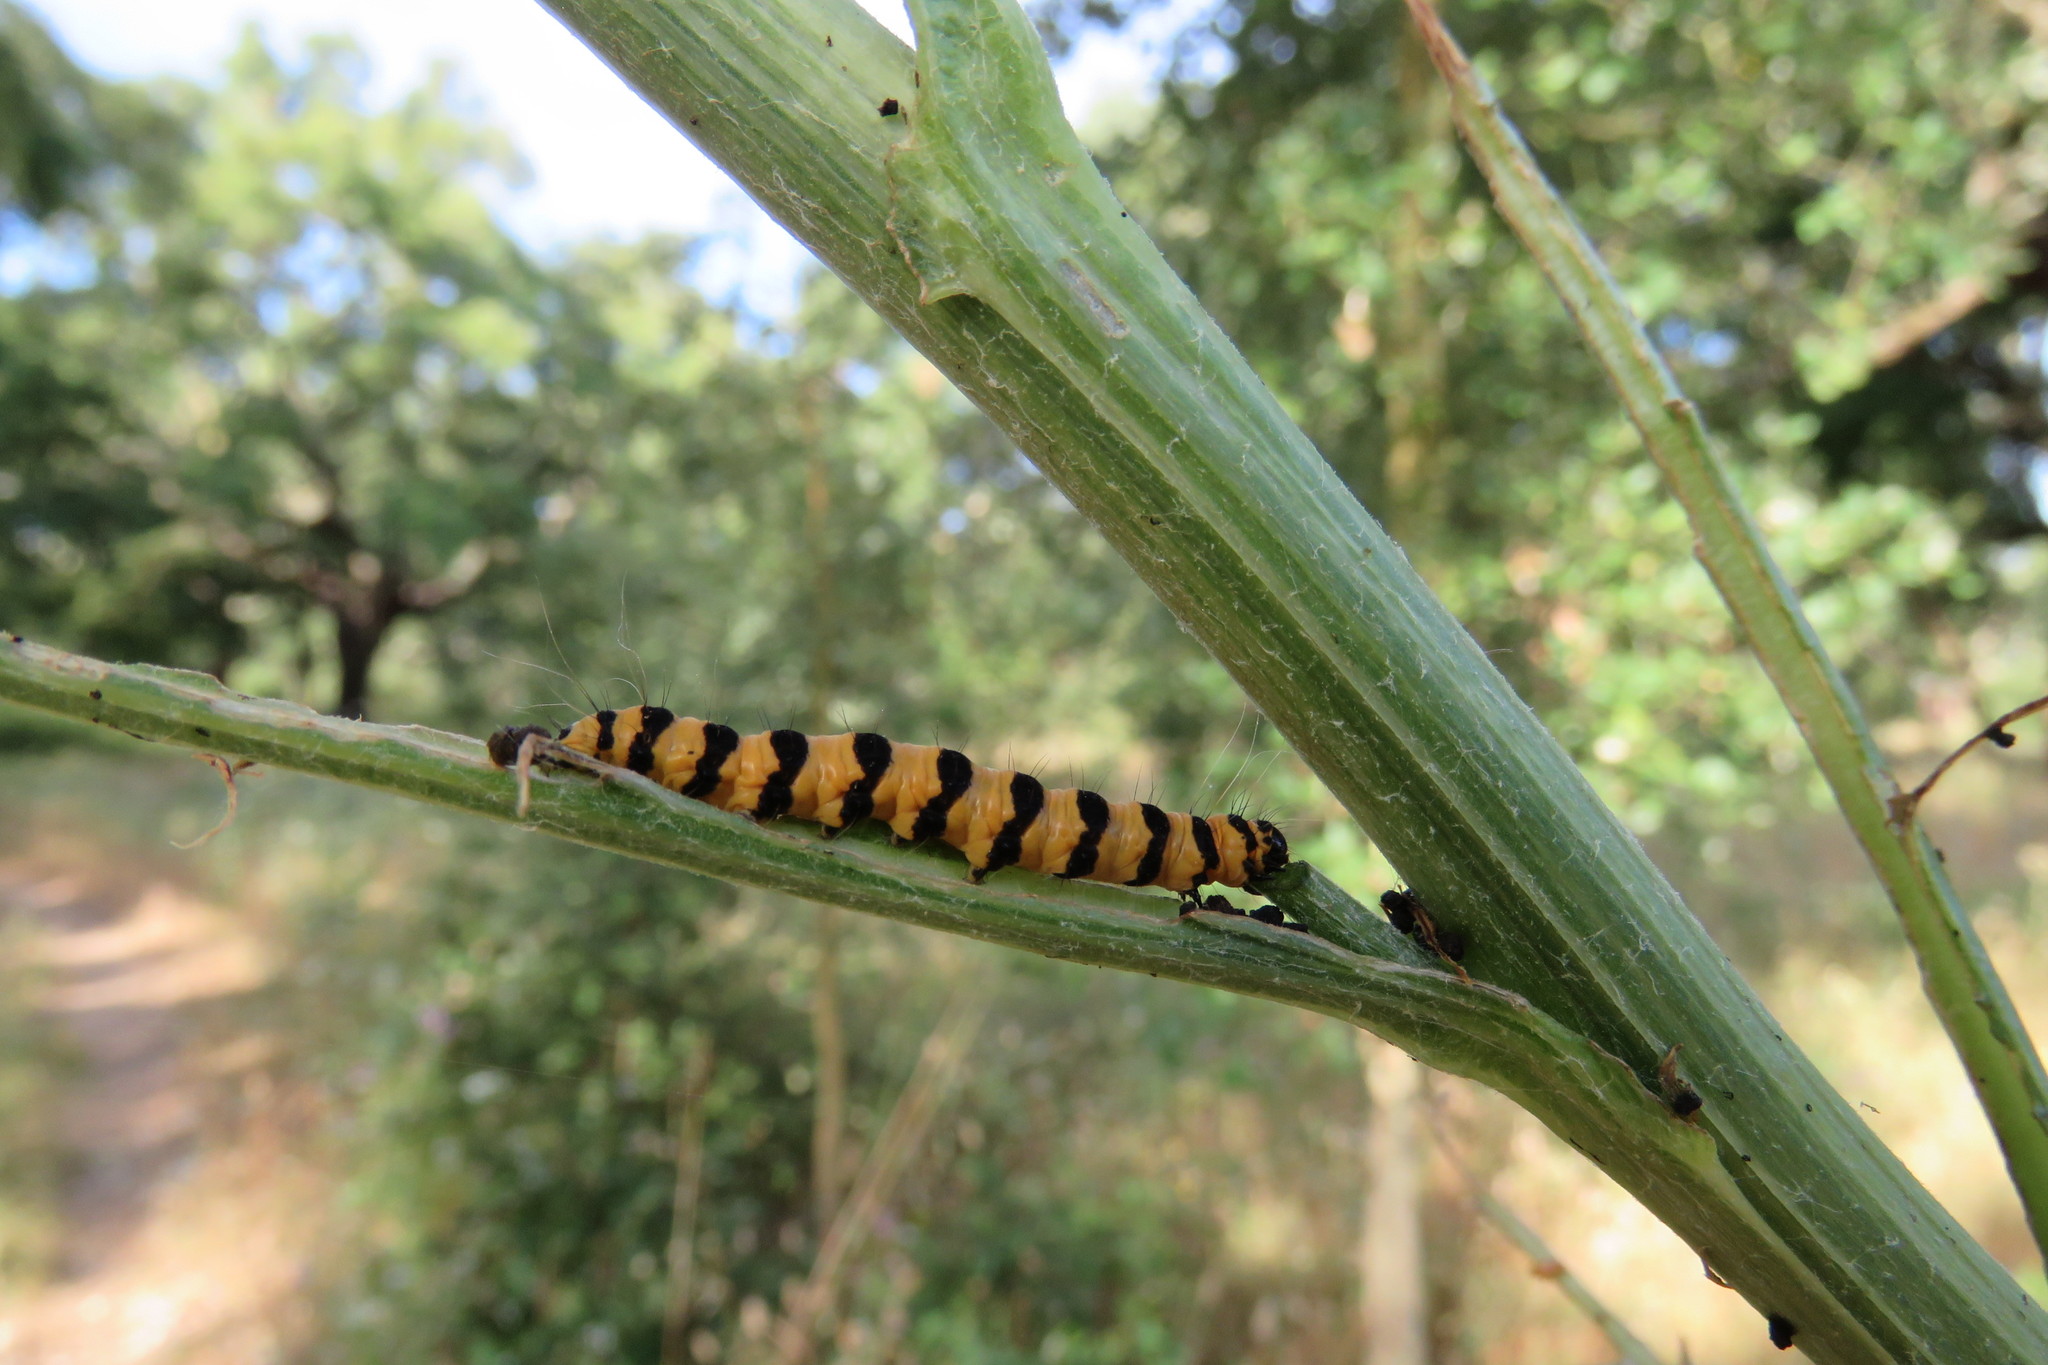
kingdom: Animalia
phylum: Arthropoda
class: Insecta
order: Lepidoptera
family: Erebidae
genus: Tyria
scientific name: Tyria jacobaeae
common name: Cinnabar
